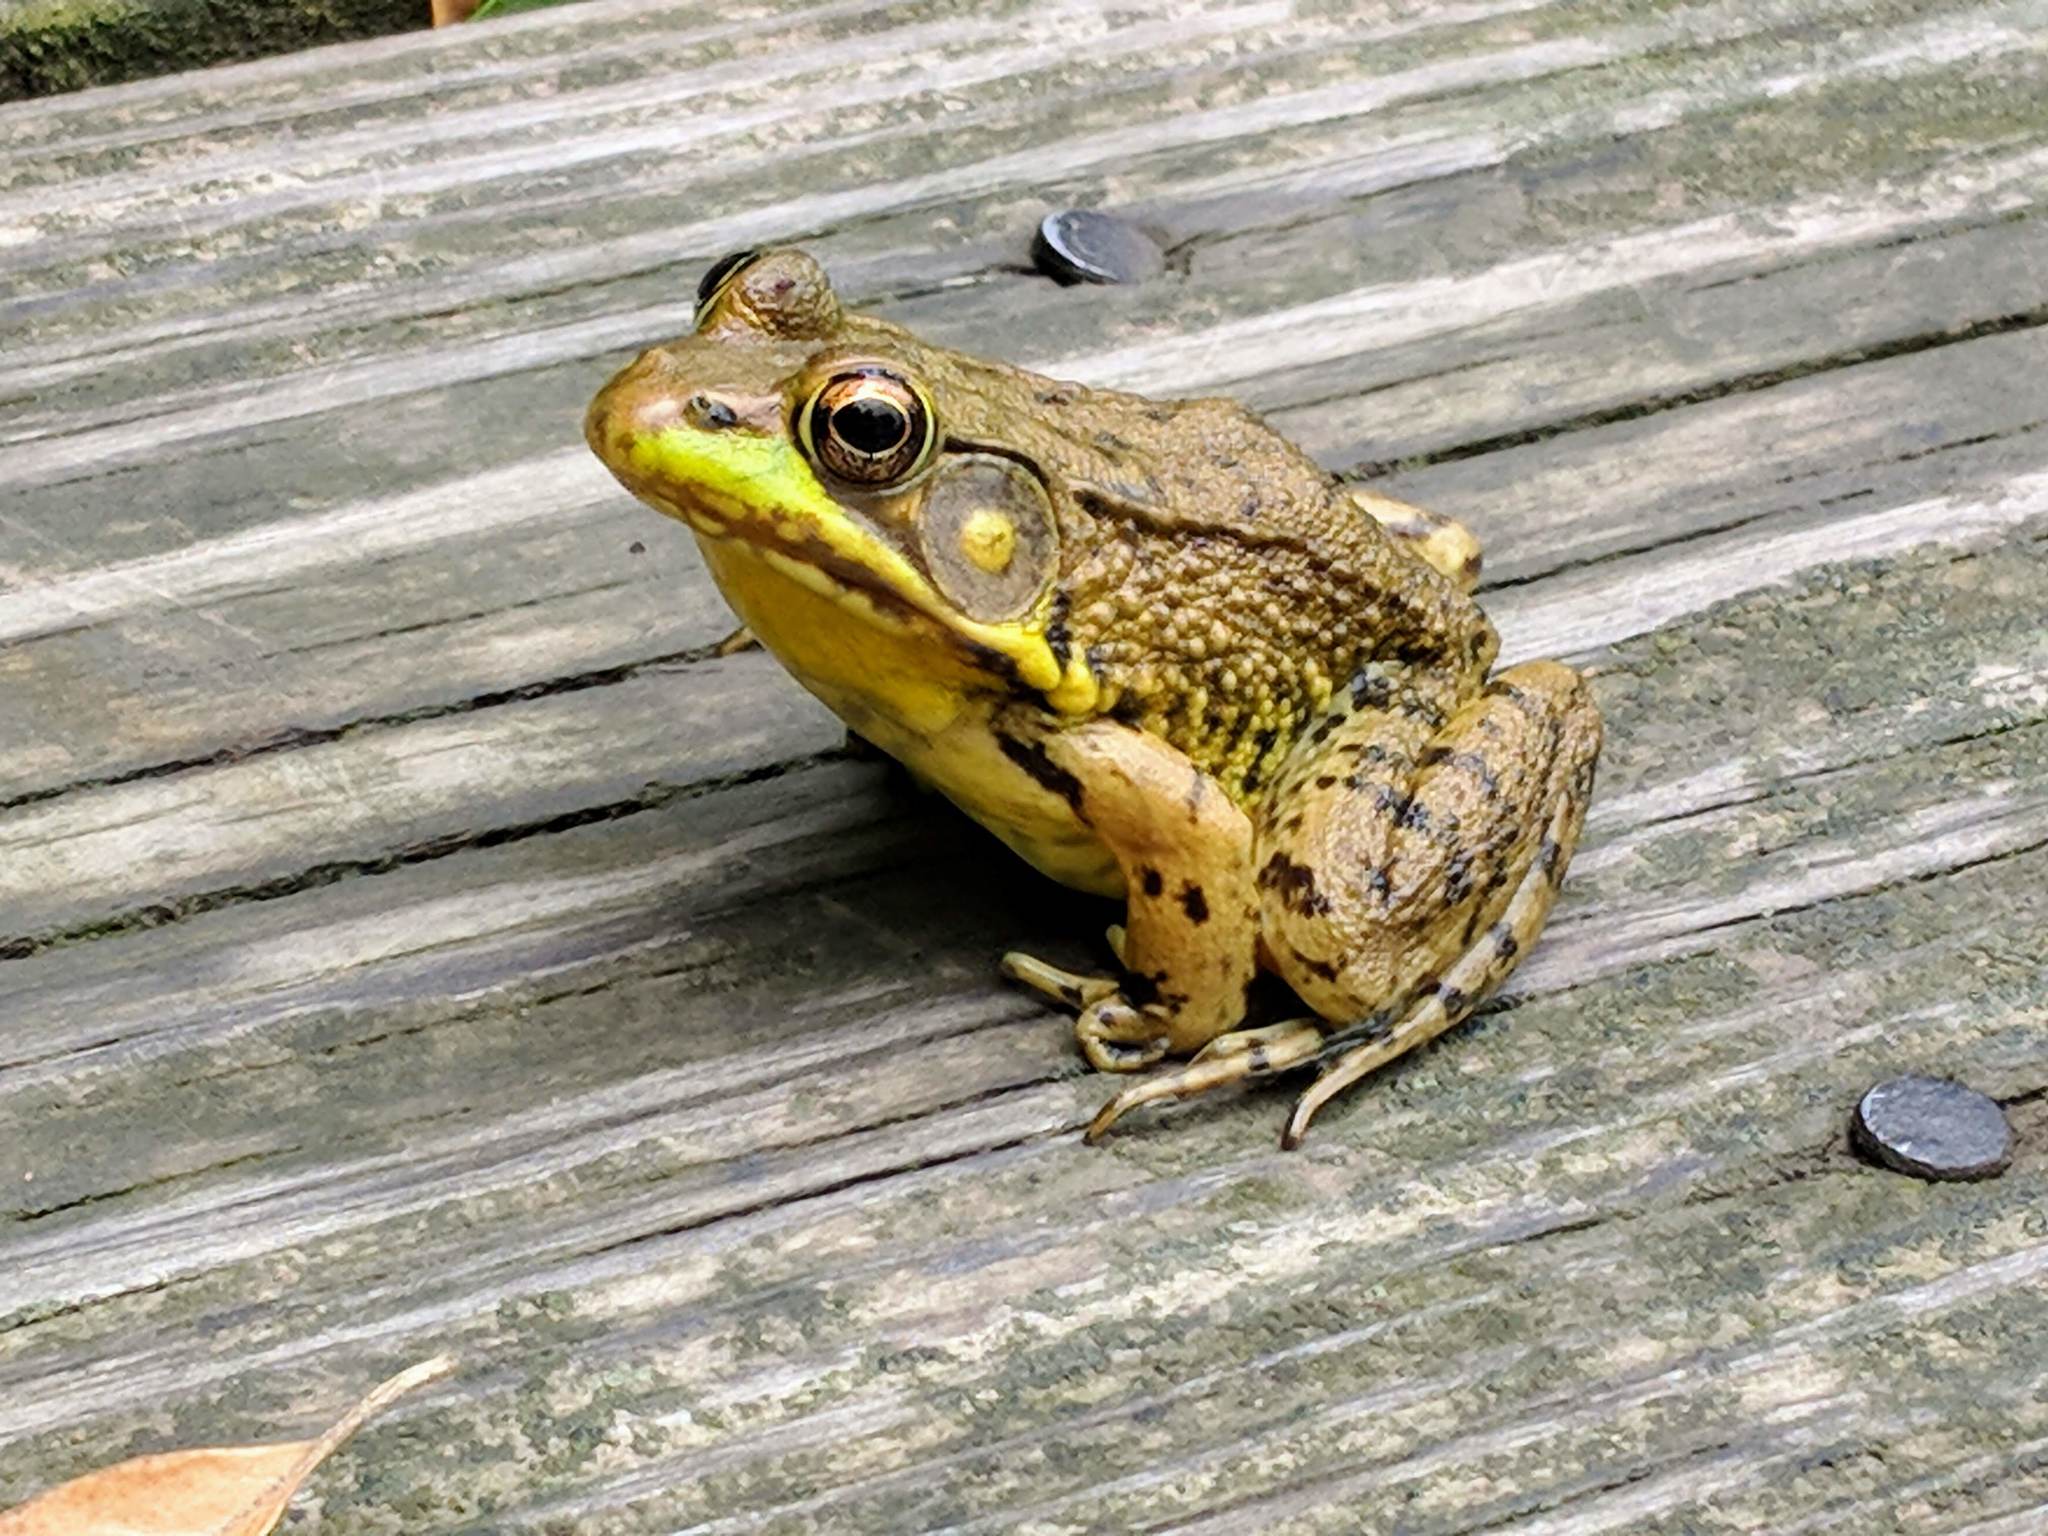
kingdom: Animalia
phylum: Chordata
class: Amphibia
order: Anura
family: Ranidae
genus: Lithobates
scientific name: Lithobates clamitans
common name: Green frog
